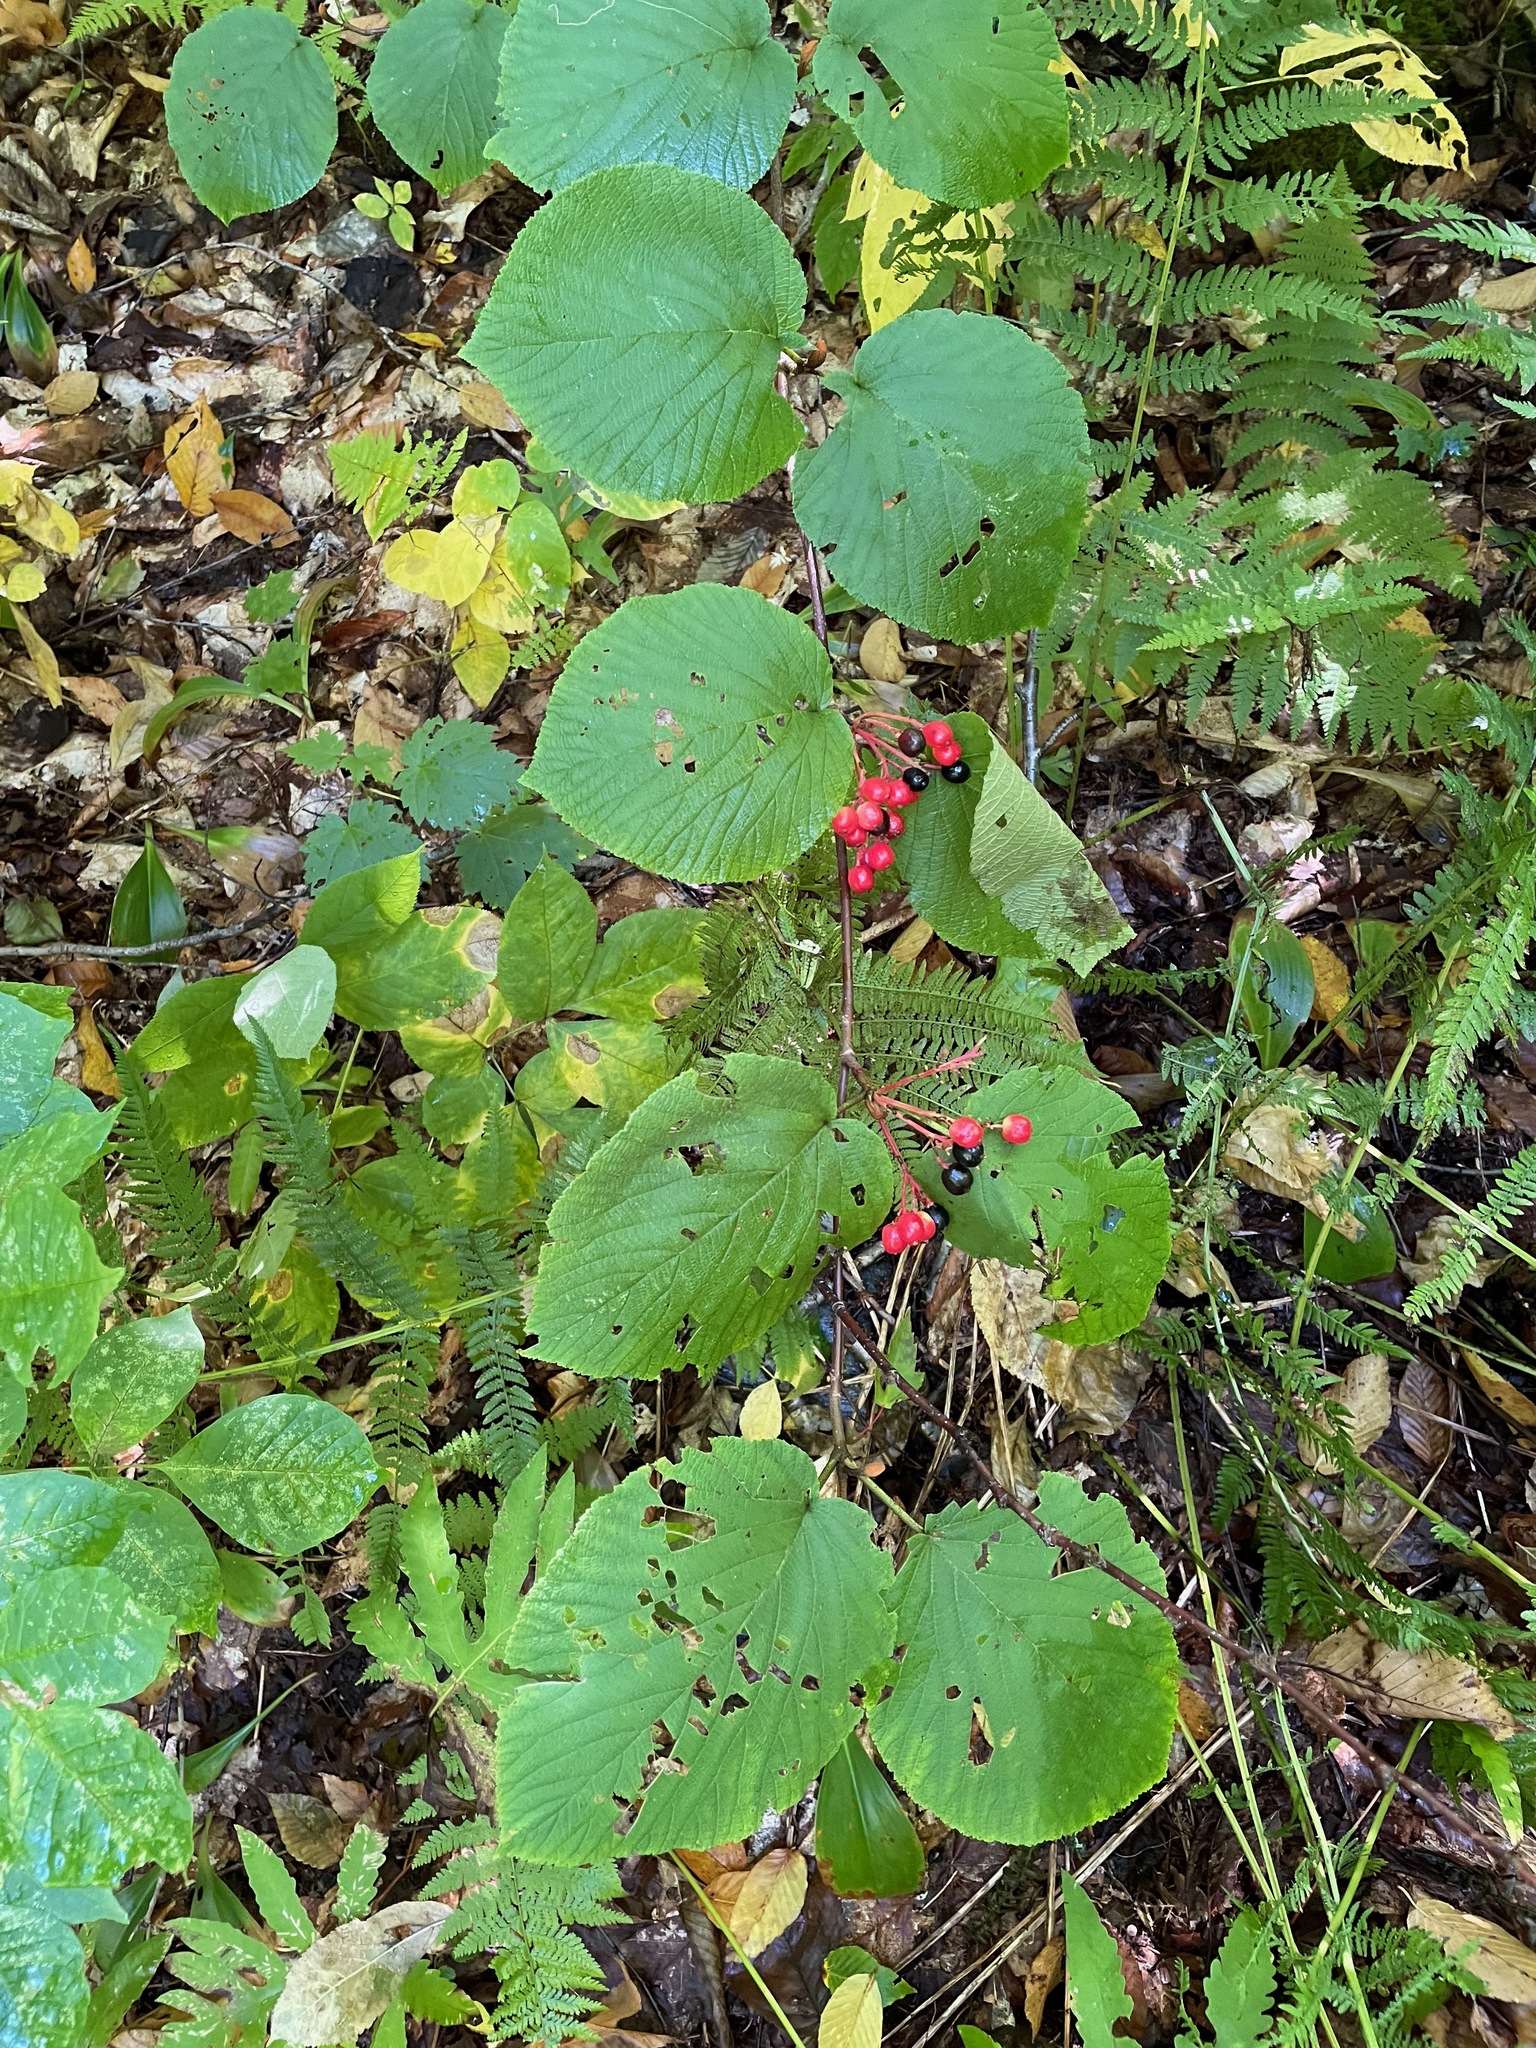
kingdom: Plantae
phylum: Tracheophyta
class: Magnoliopsida
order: Dipsacales
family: Viburnaceae
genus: Viburnum
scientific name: Viburnum lantanoides
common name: Hobblebush
